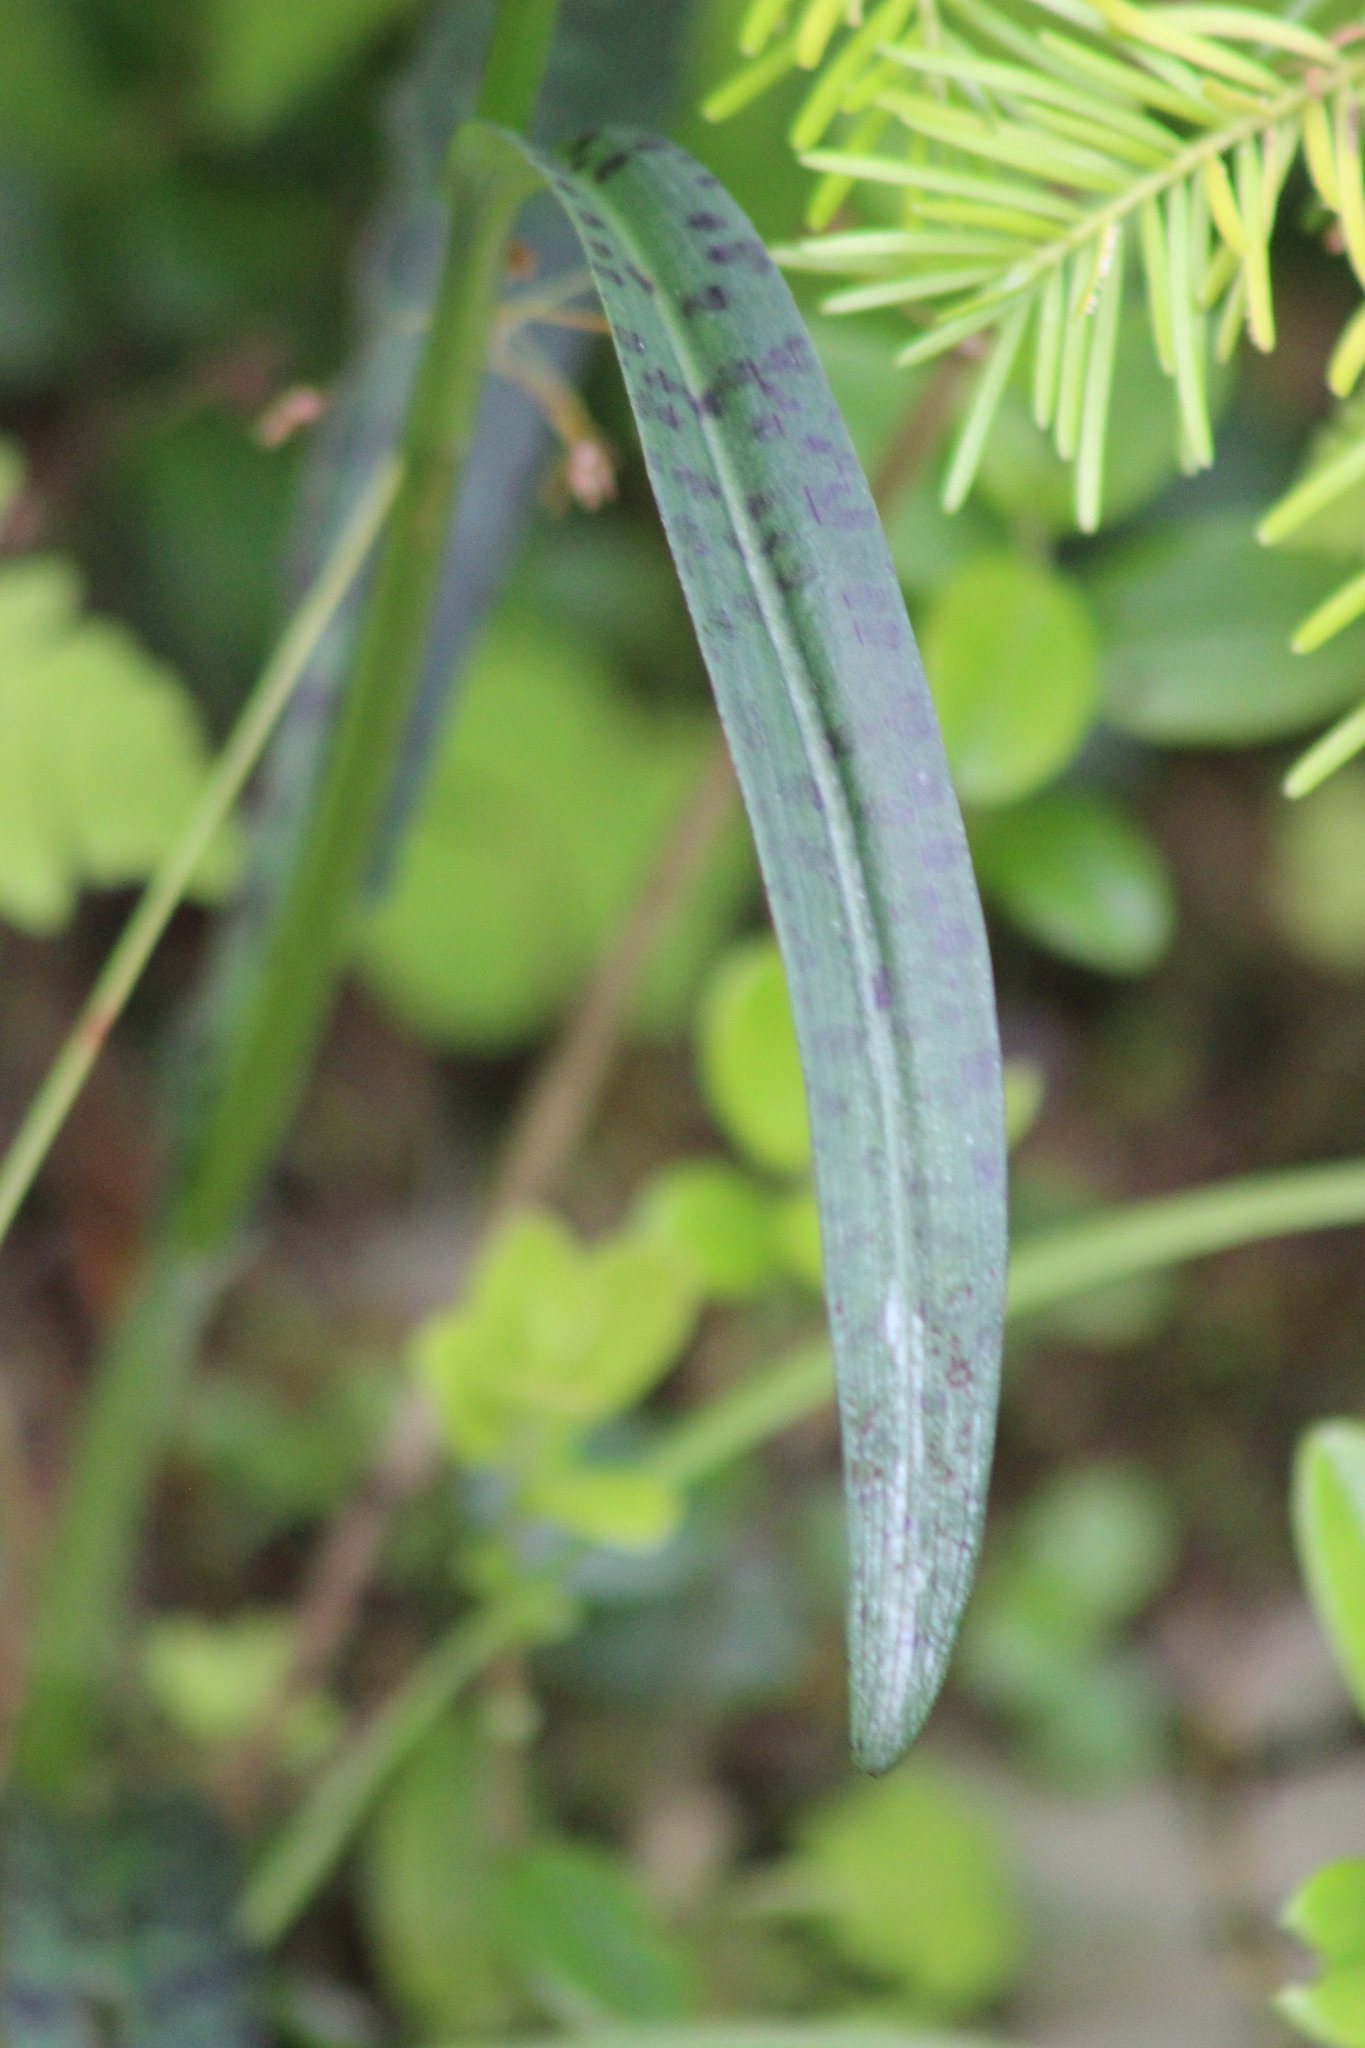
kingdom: Plantae
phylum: Tracheophyta
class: Liliopsida
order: Asparagales
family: Orchidaceae
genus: Dactylorhiza
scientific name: Dactylorhiza maculata
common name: Heath spotted-orchid
